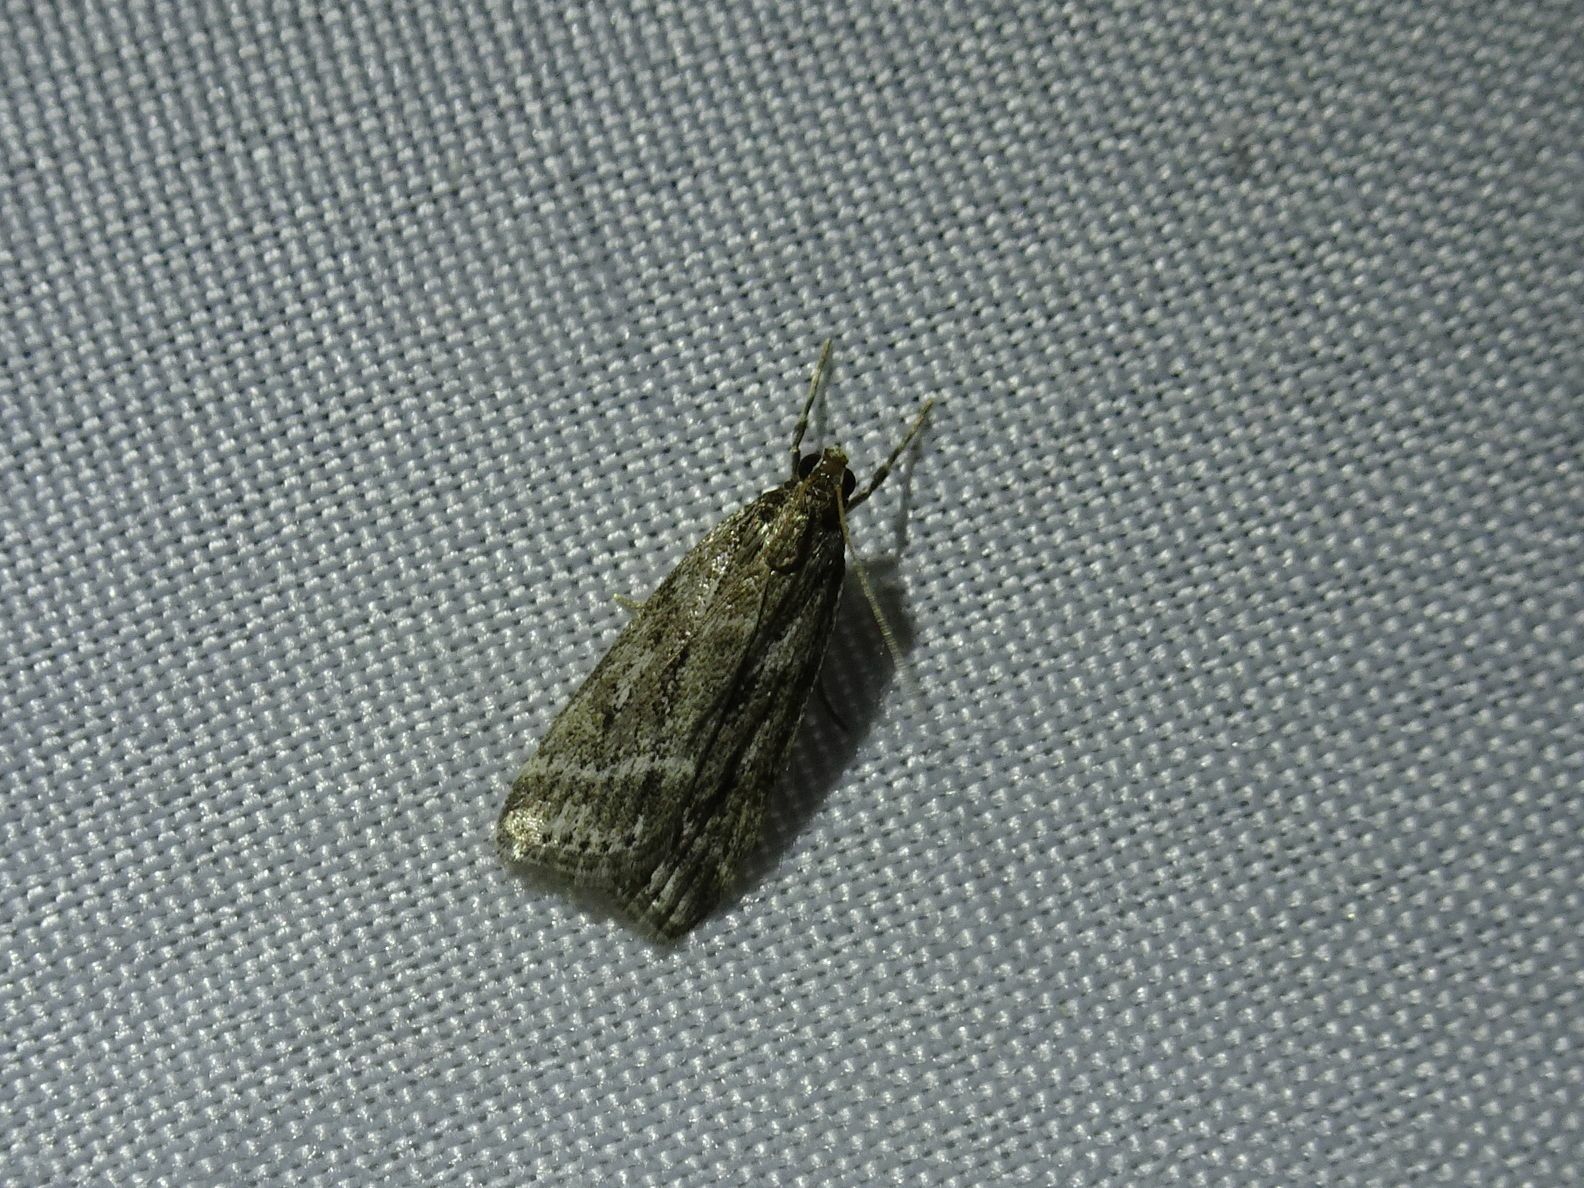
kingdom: Animalia
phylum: Arthropoda
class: Insecta
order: Lepidoptera
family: Crambidae
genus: Eudonia
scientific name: Eudonia truncicolella
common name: Ground-moss grey
